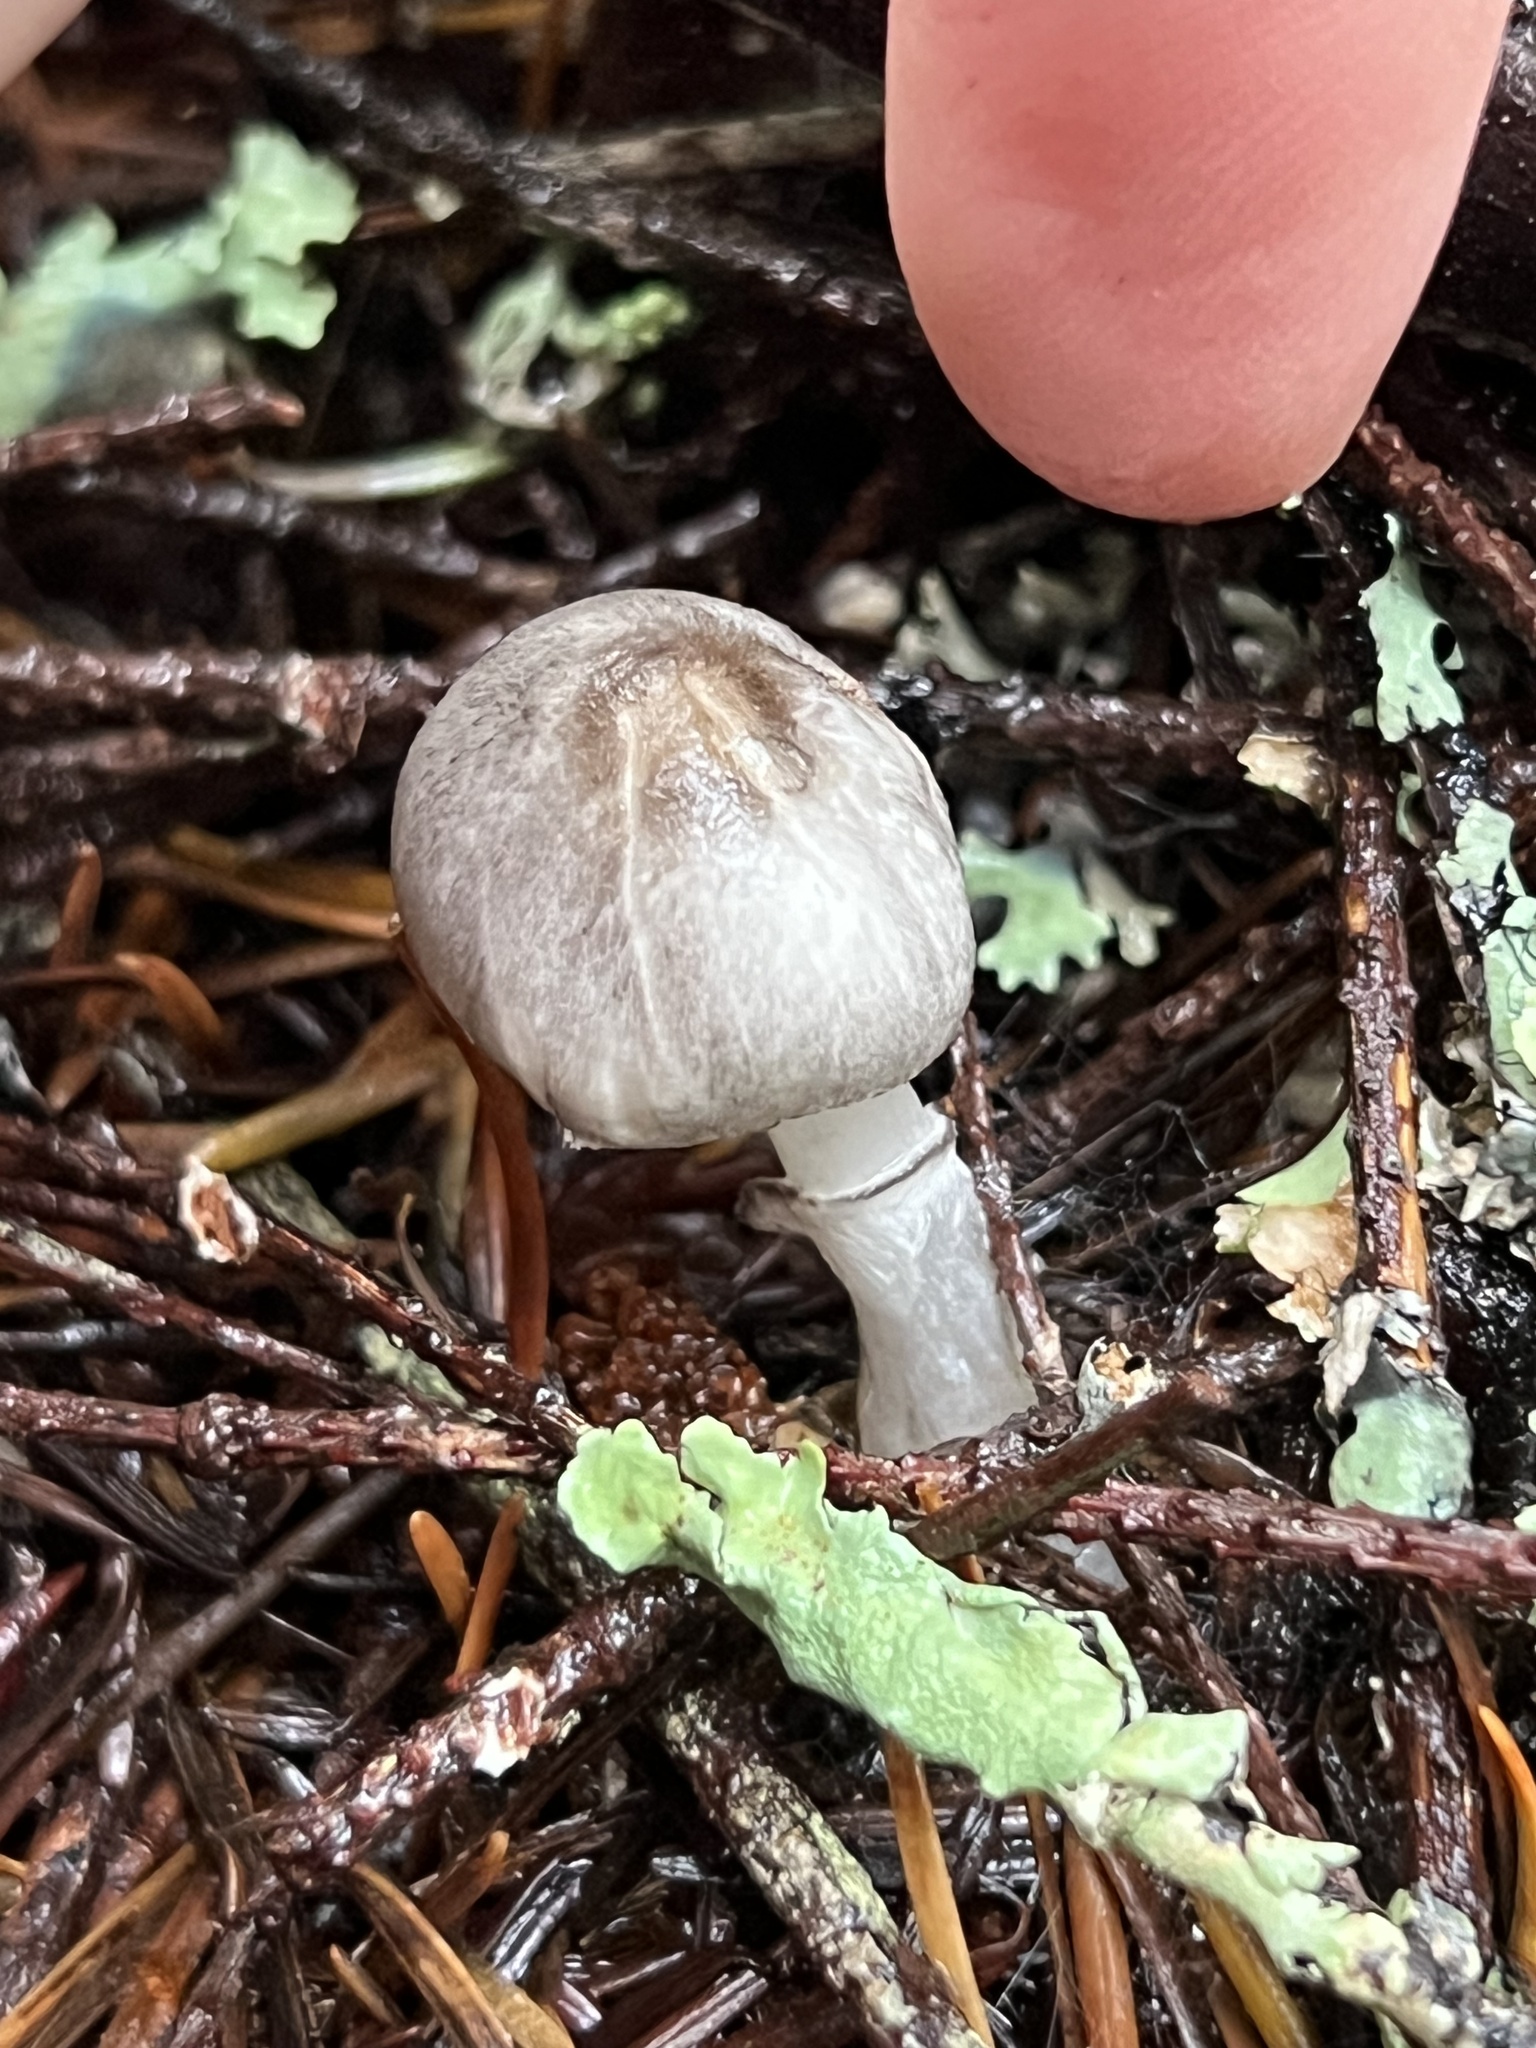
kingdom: Fungi
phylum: Basidiomycota
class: Agaricomycetes
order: Agaricales
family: Agaricaceae
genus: Lepiota
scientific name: Lepiota atrodisca
